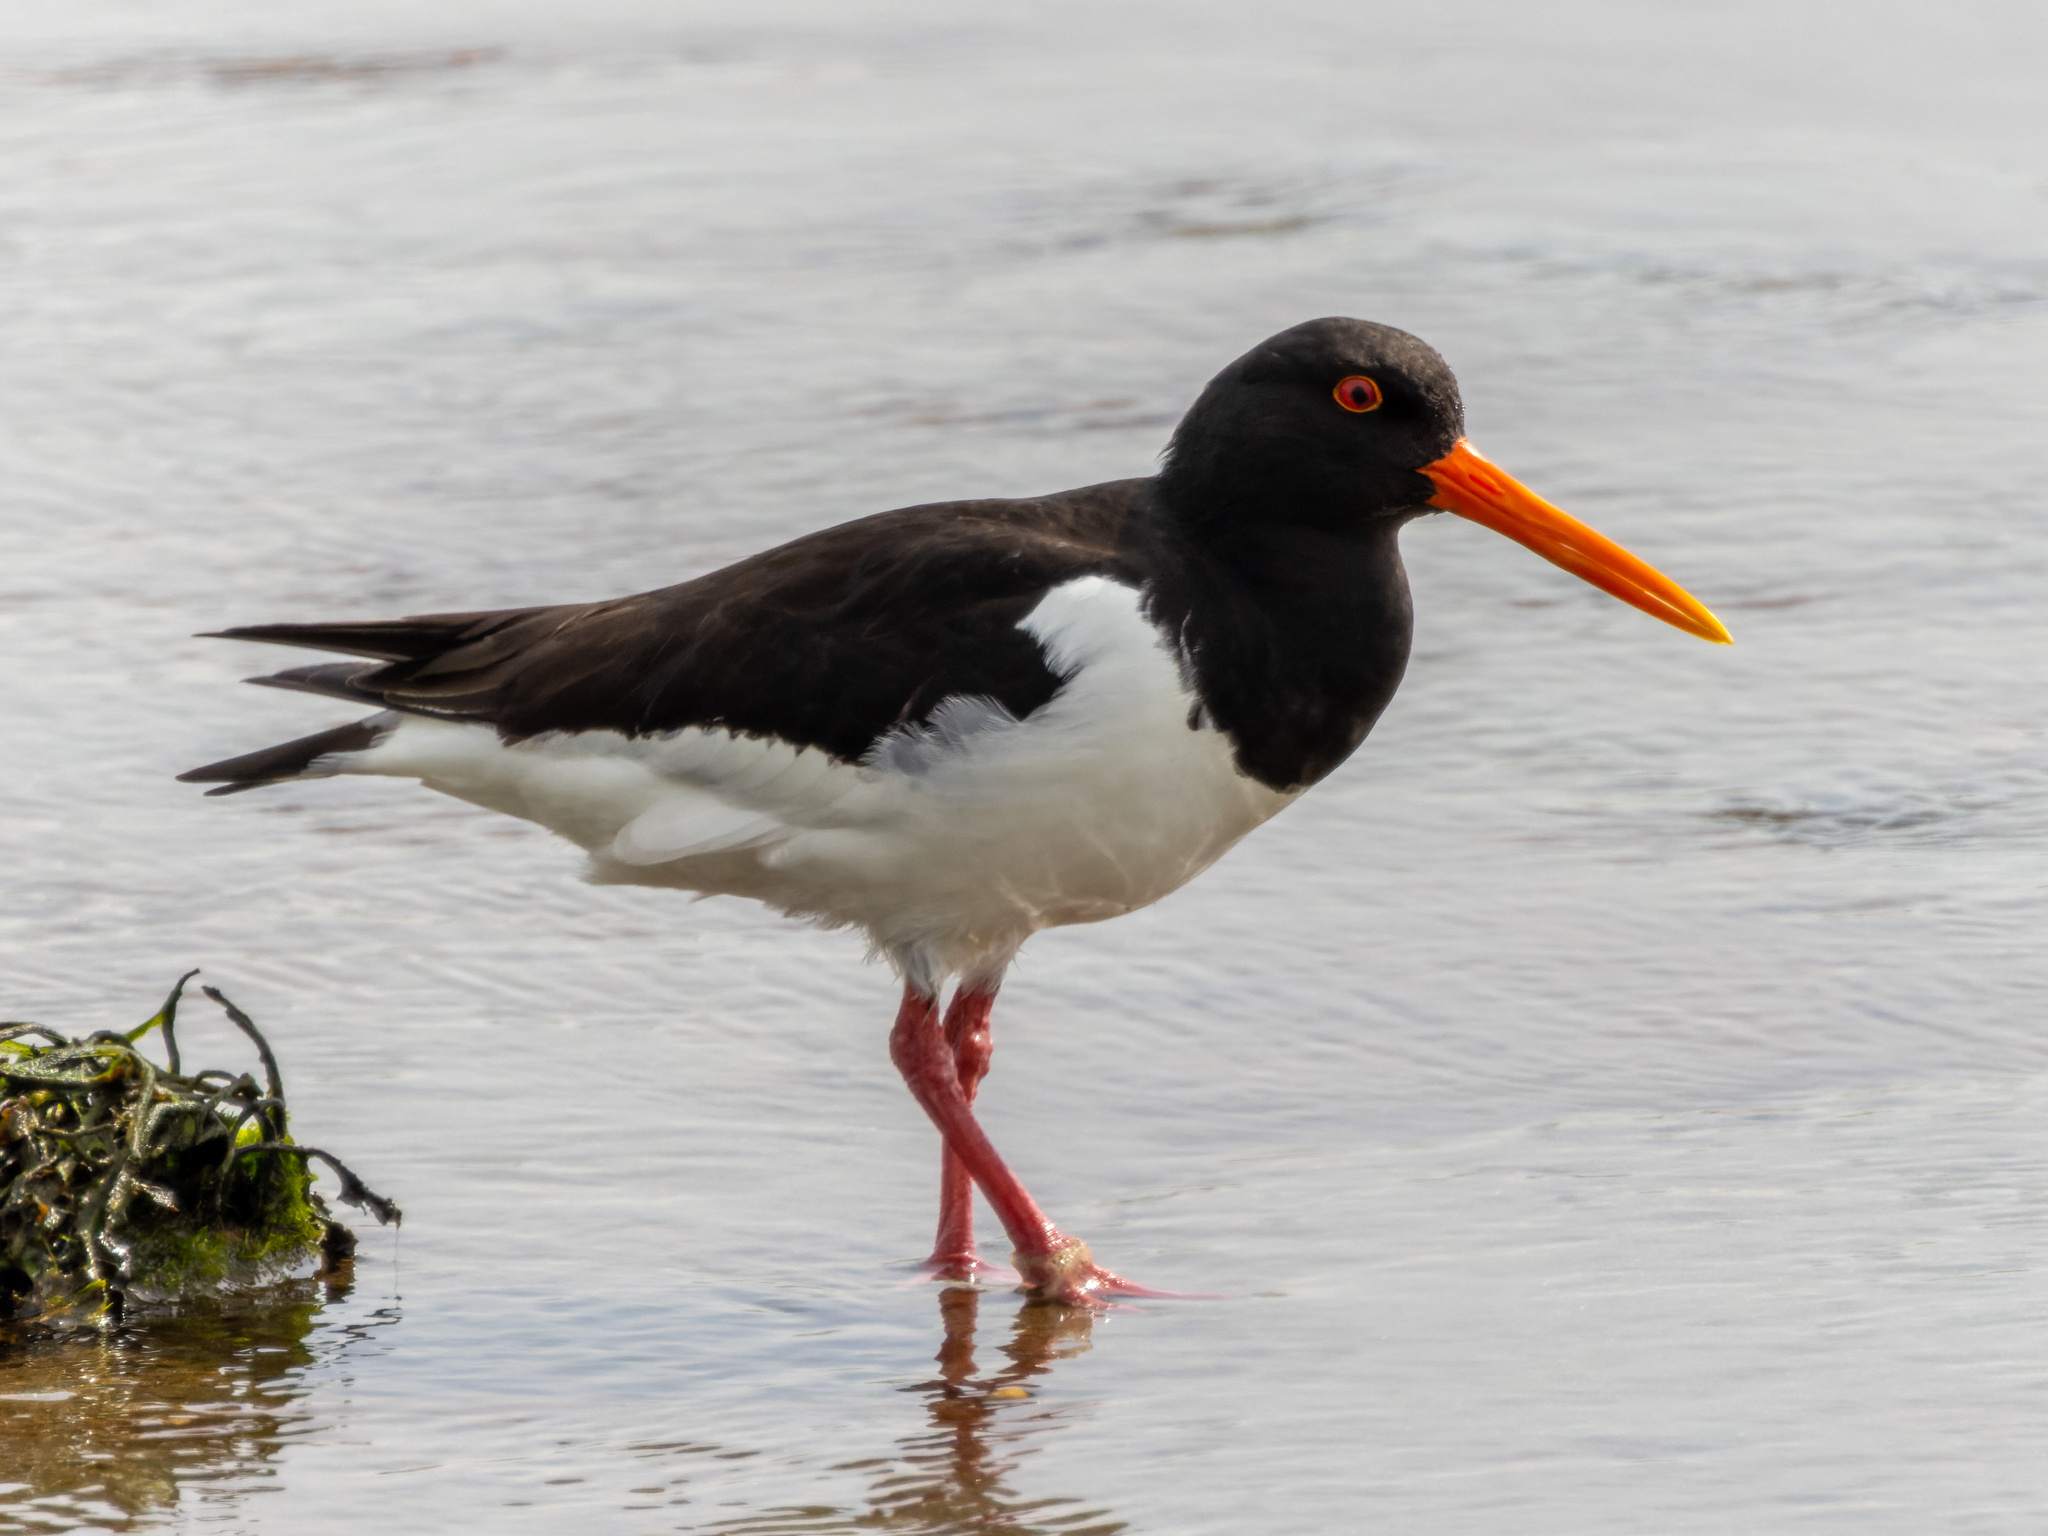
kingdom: Animalia
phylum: Chordata
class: Aves
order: Charadriiformes
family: Haematopodidae
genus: Haematopus
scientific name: Haematopus ostralegus
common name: Eurasian oystercatcher
